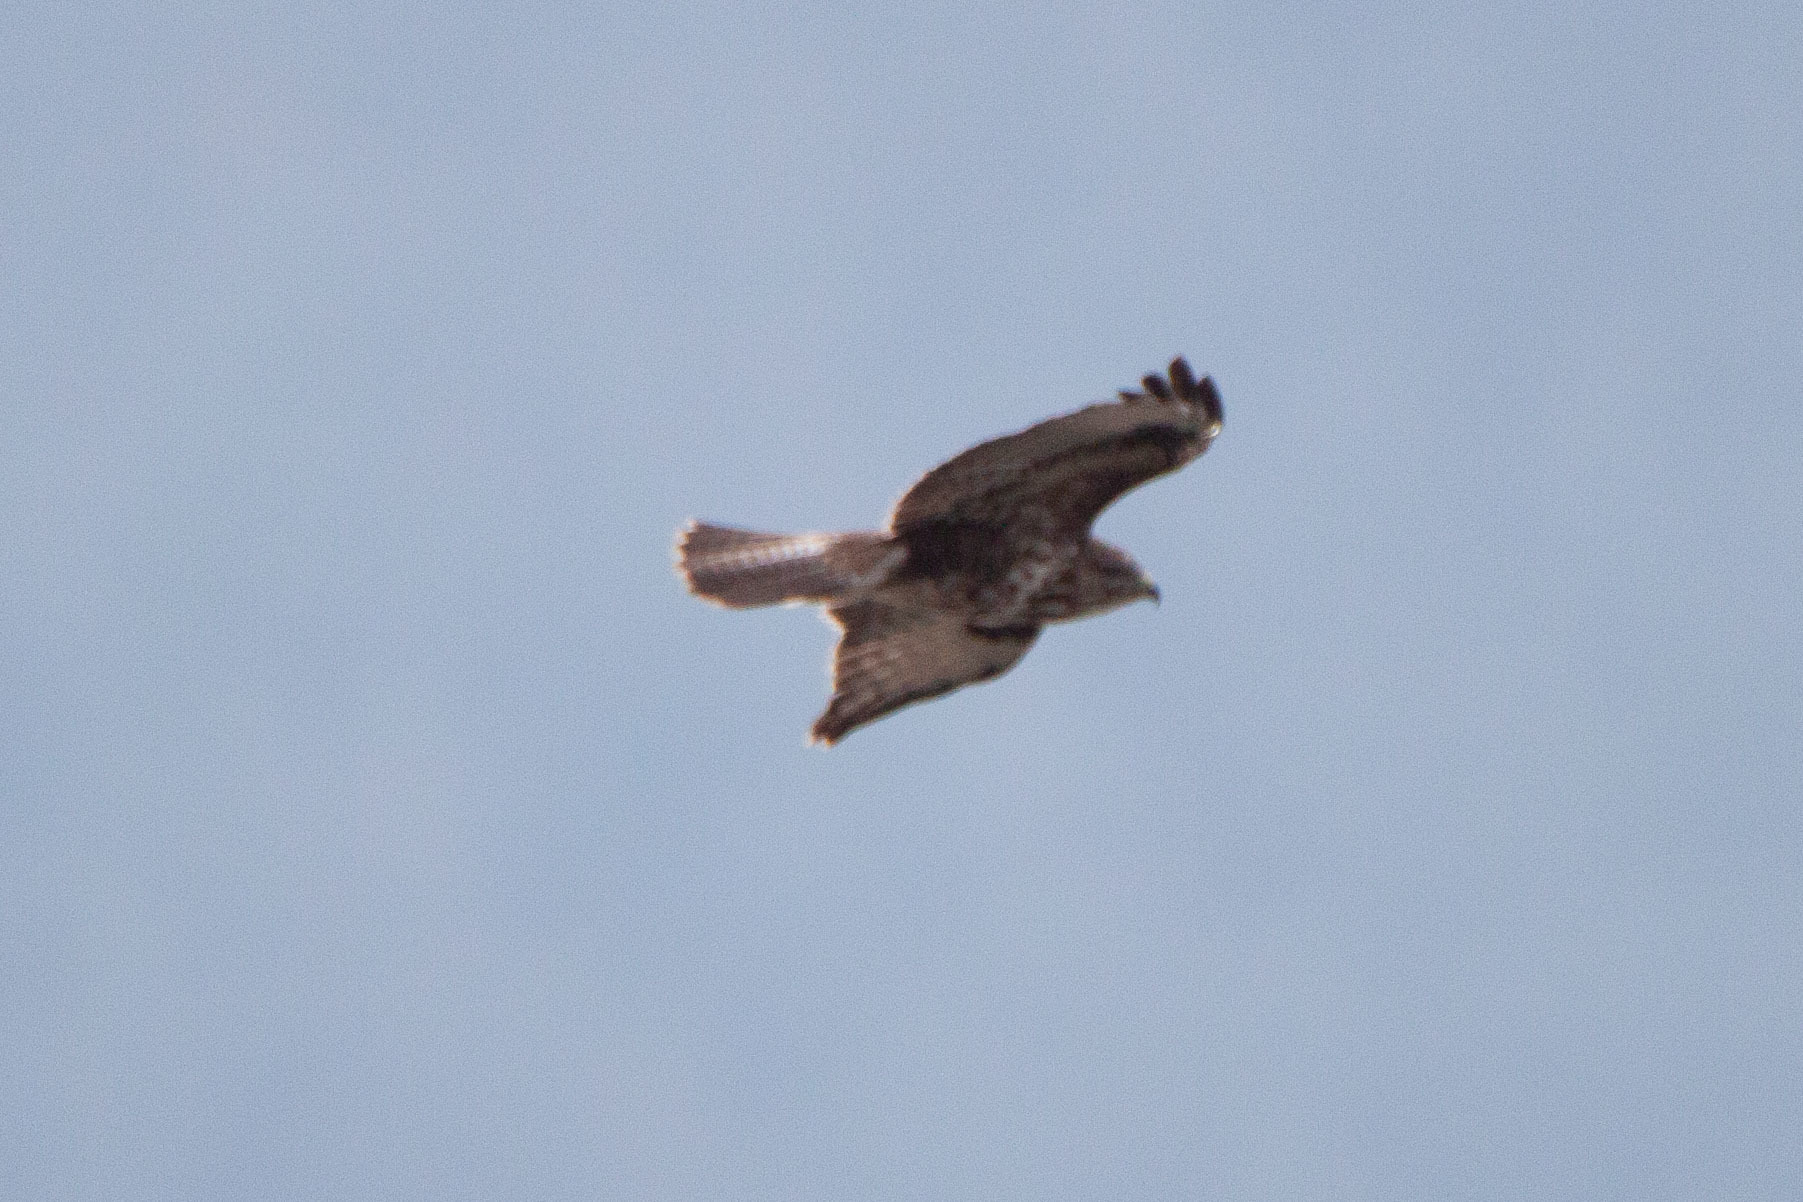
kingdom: Animalia
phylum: Chordata
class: Aves
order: Accipitriformes
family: Accipitridae
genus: Buteo
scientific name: Buteo buteo
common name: Common buzzard
